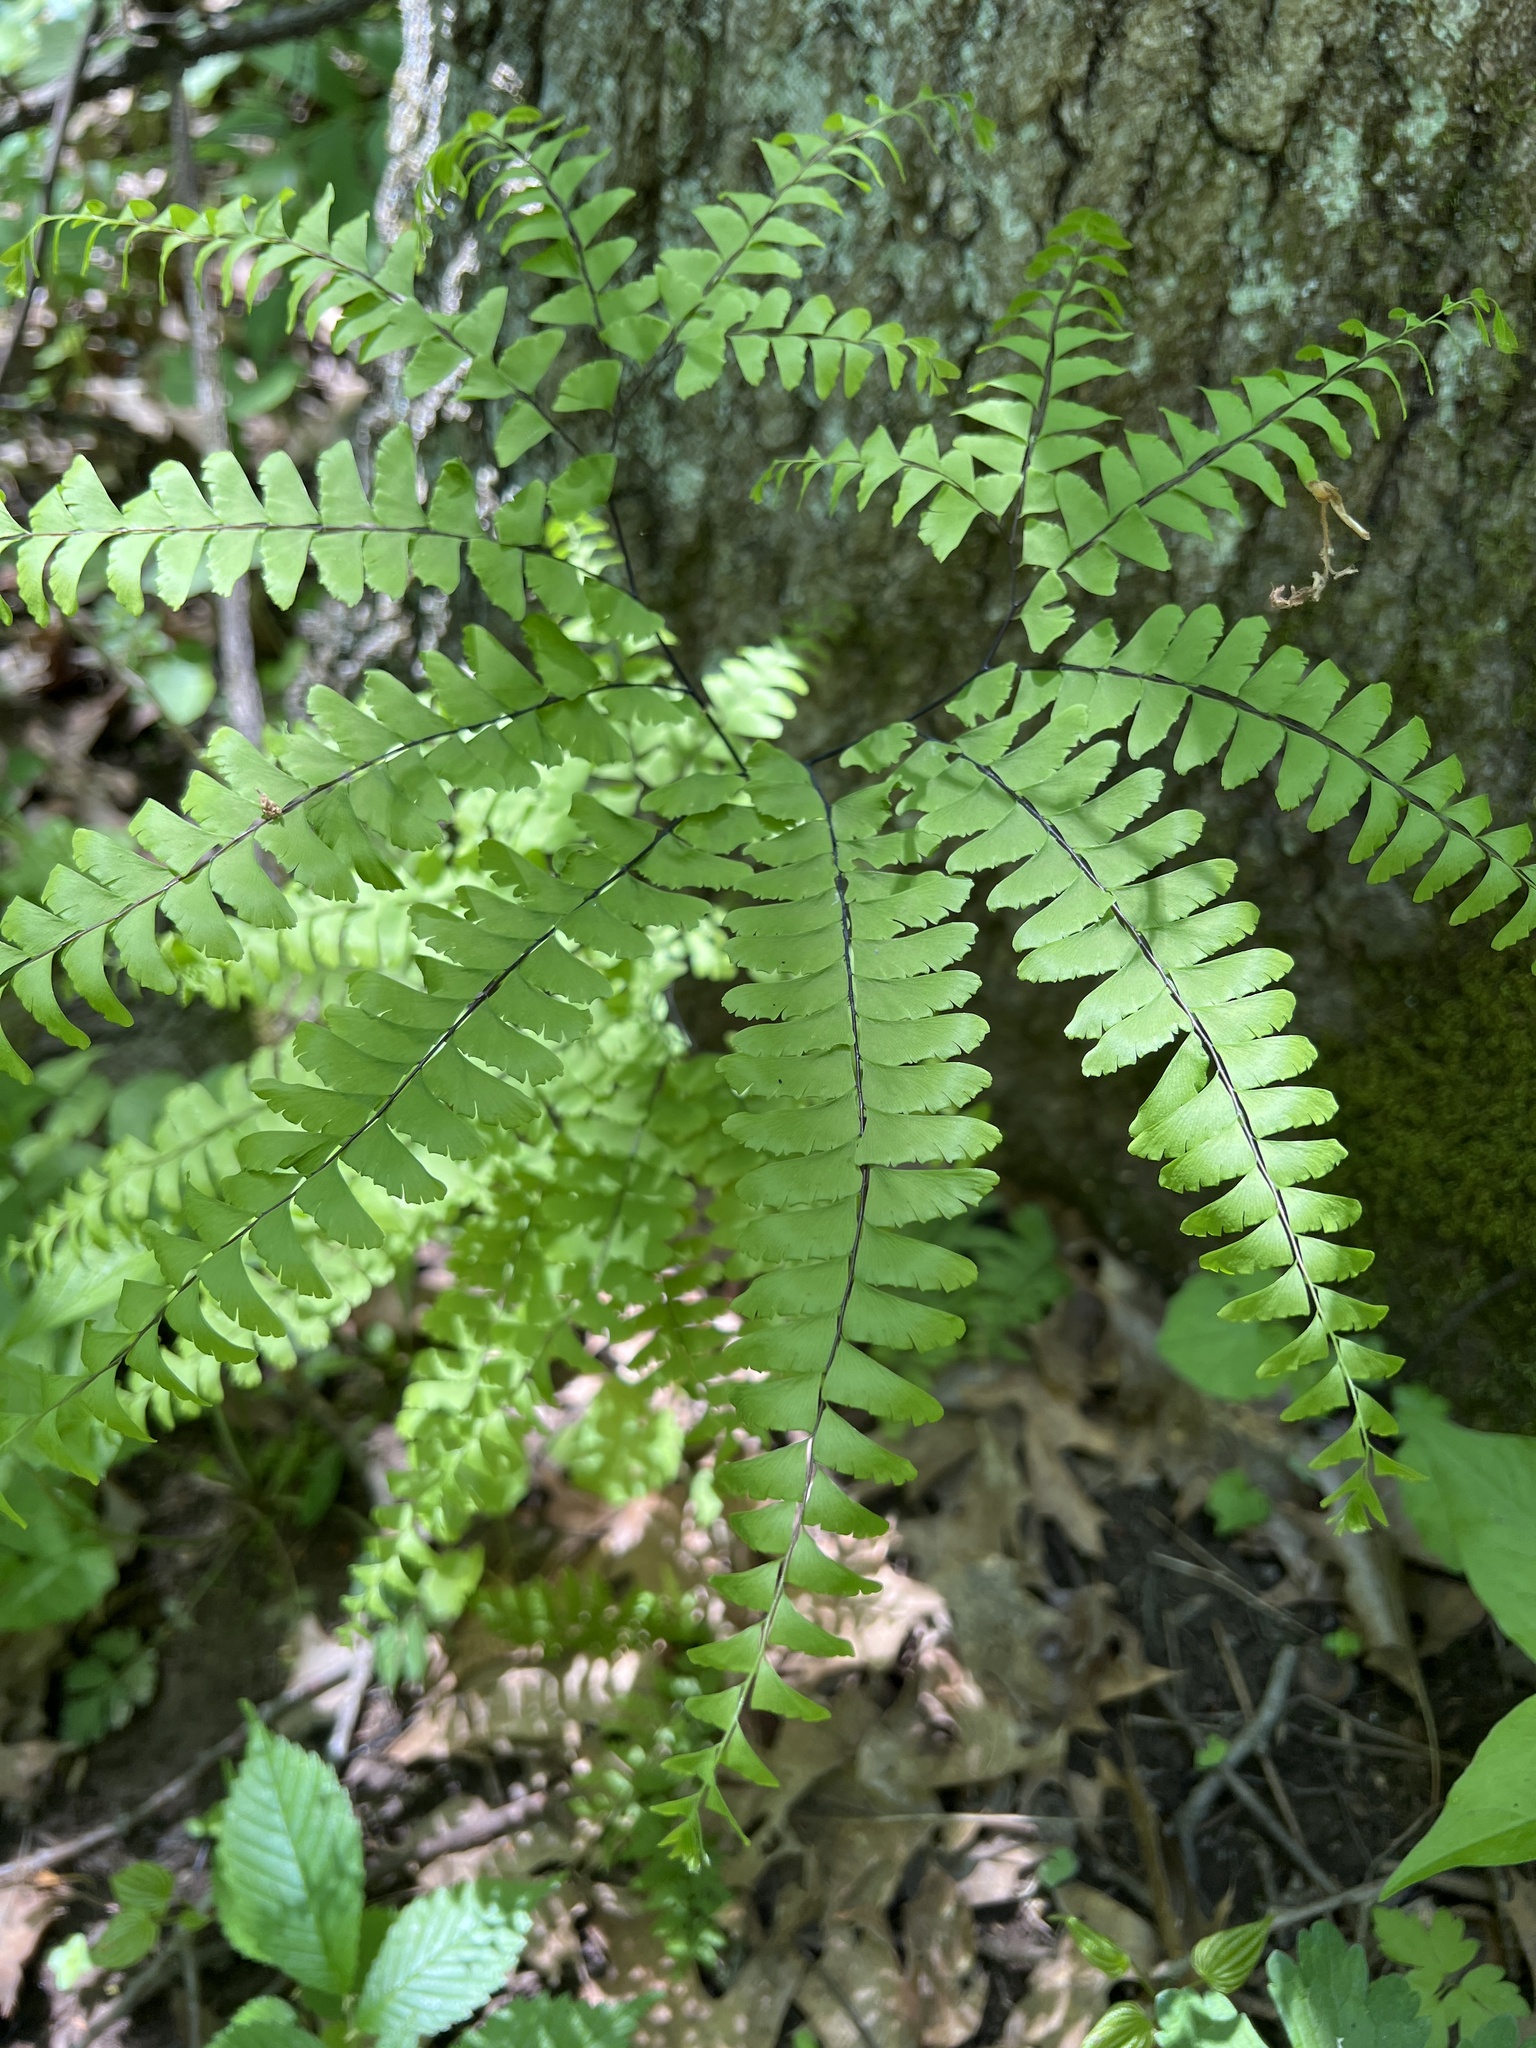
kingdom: Plantae
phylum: Tracheophyta
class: Polypodiopsida
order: Polypodiales
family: Pteridaceae
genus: Adiantum
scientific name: Adiantum pedatum
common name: Five-finger fern
